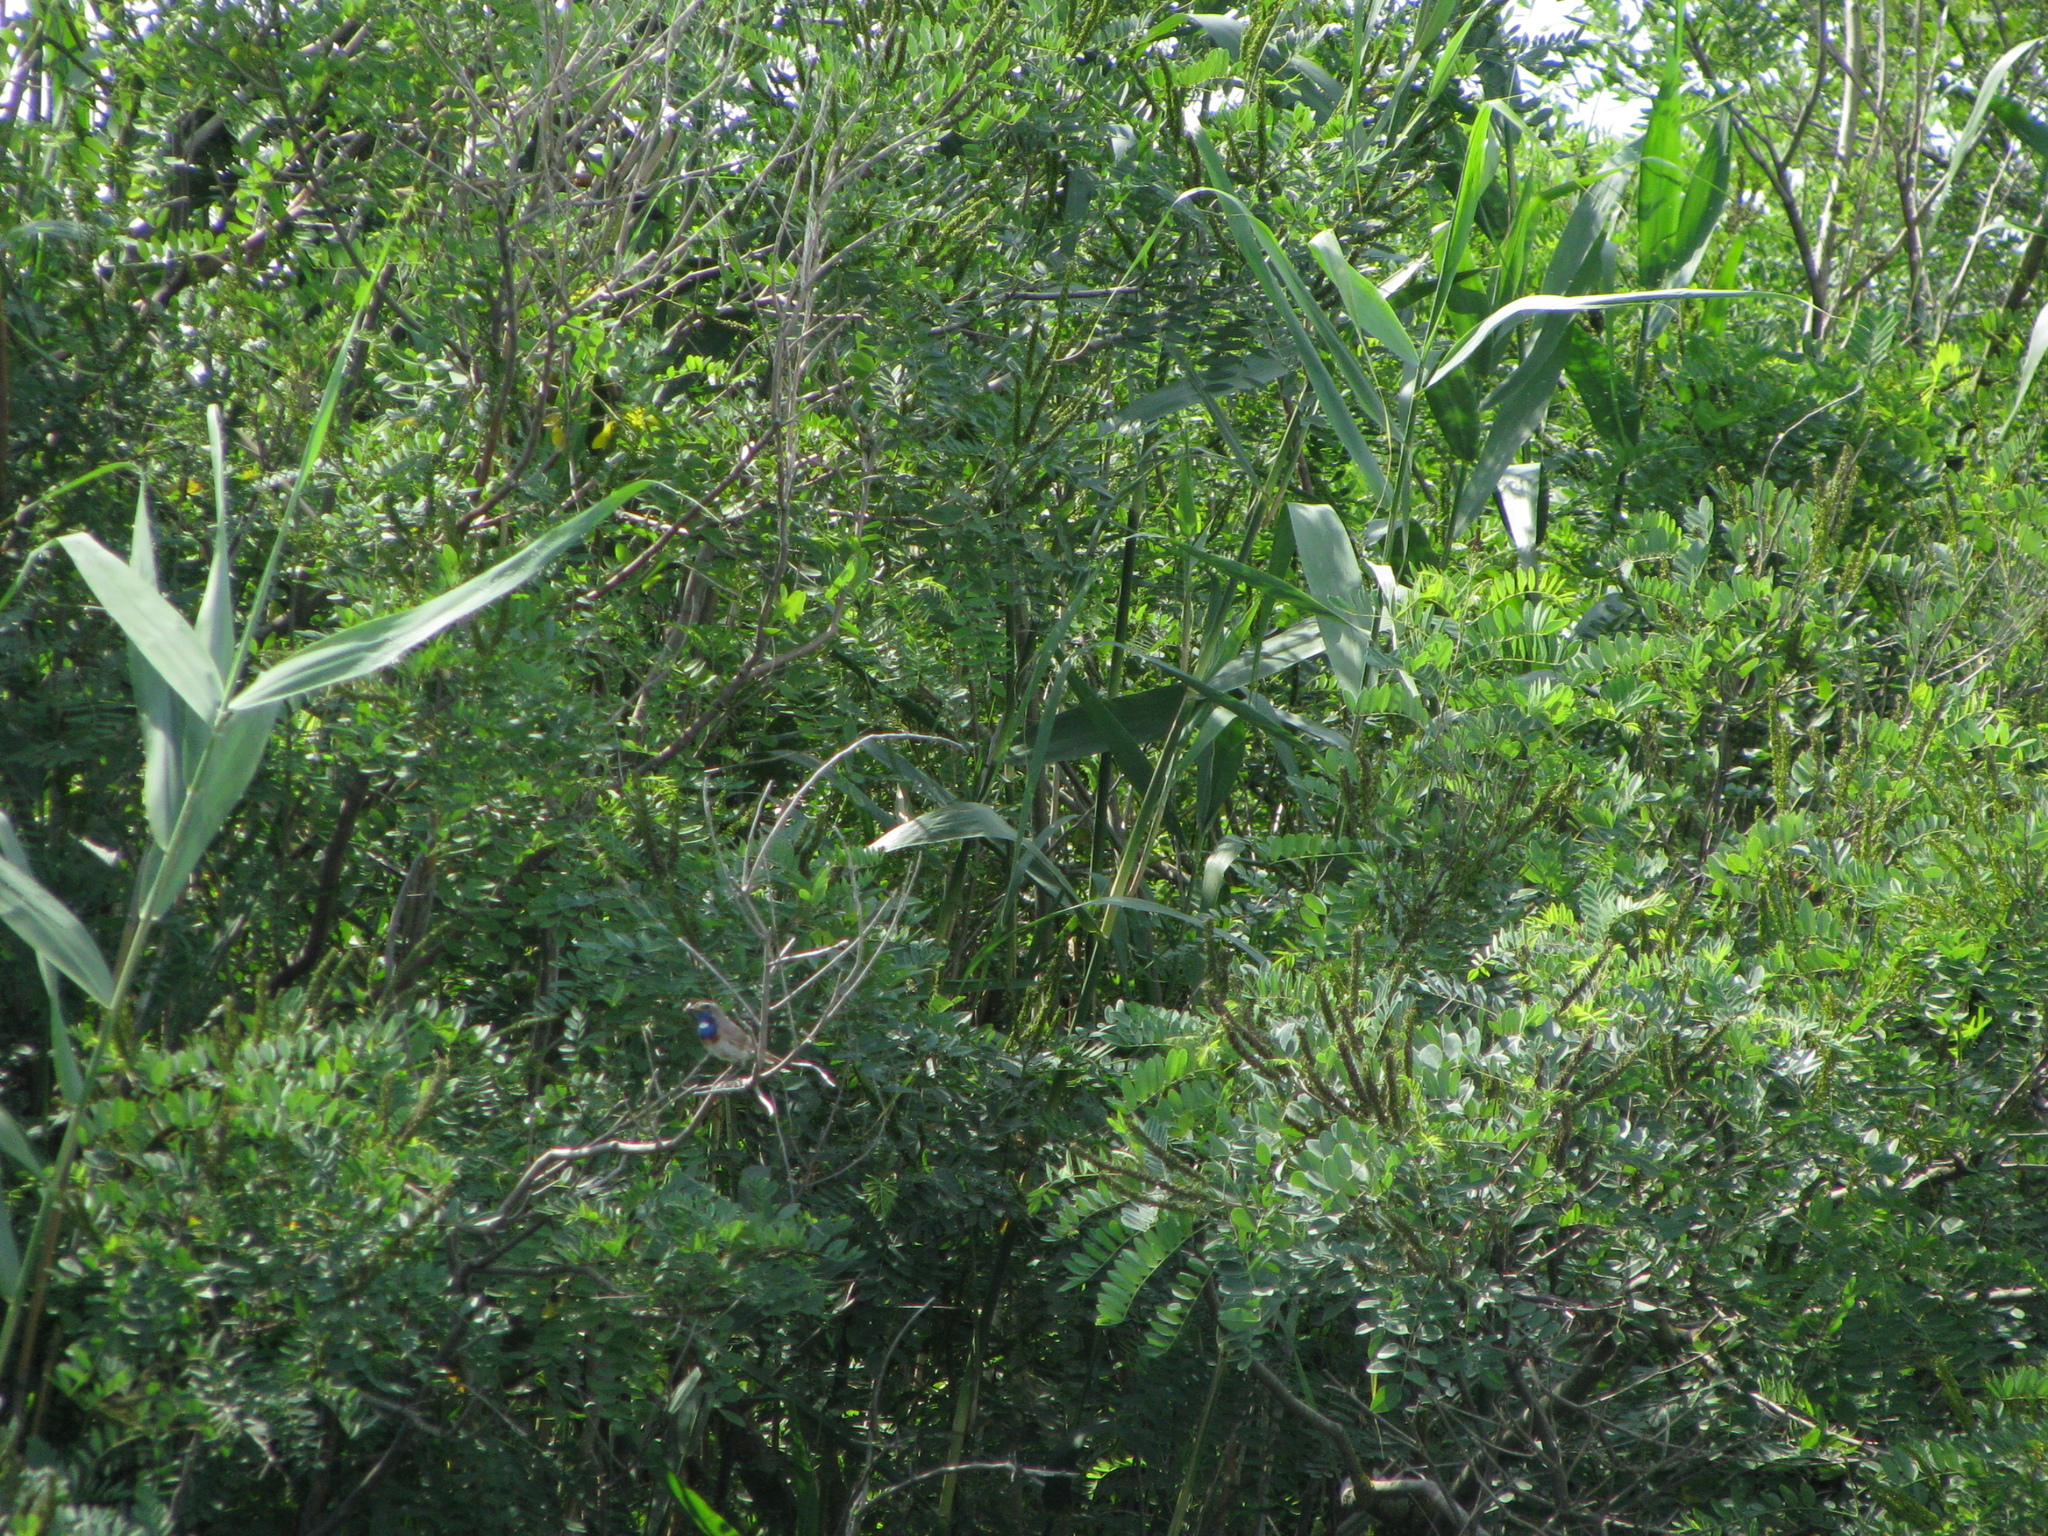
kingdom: Animalia
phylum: Chordata
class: Aves
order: Passeriformes
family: Muscicapidae
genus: Luscinia
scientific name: Luscinia svecica
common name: Bluethroat
